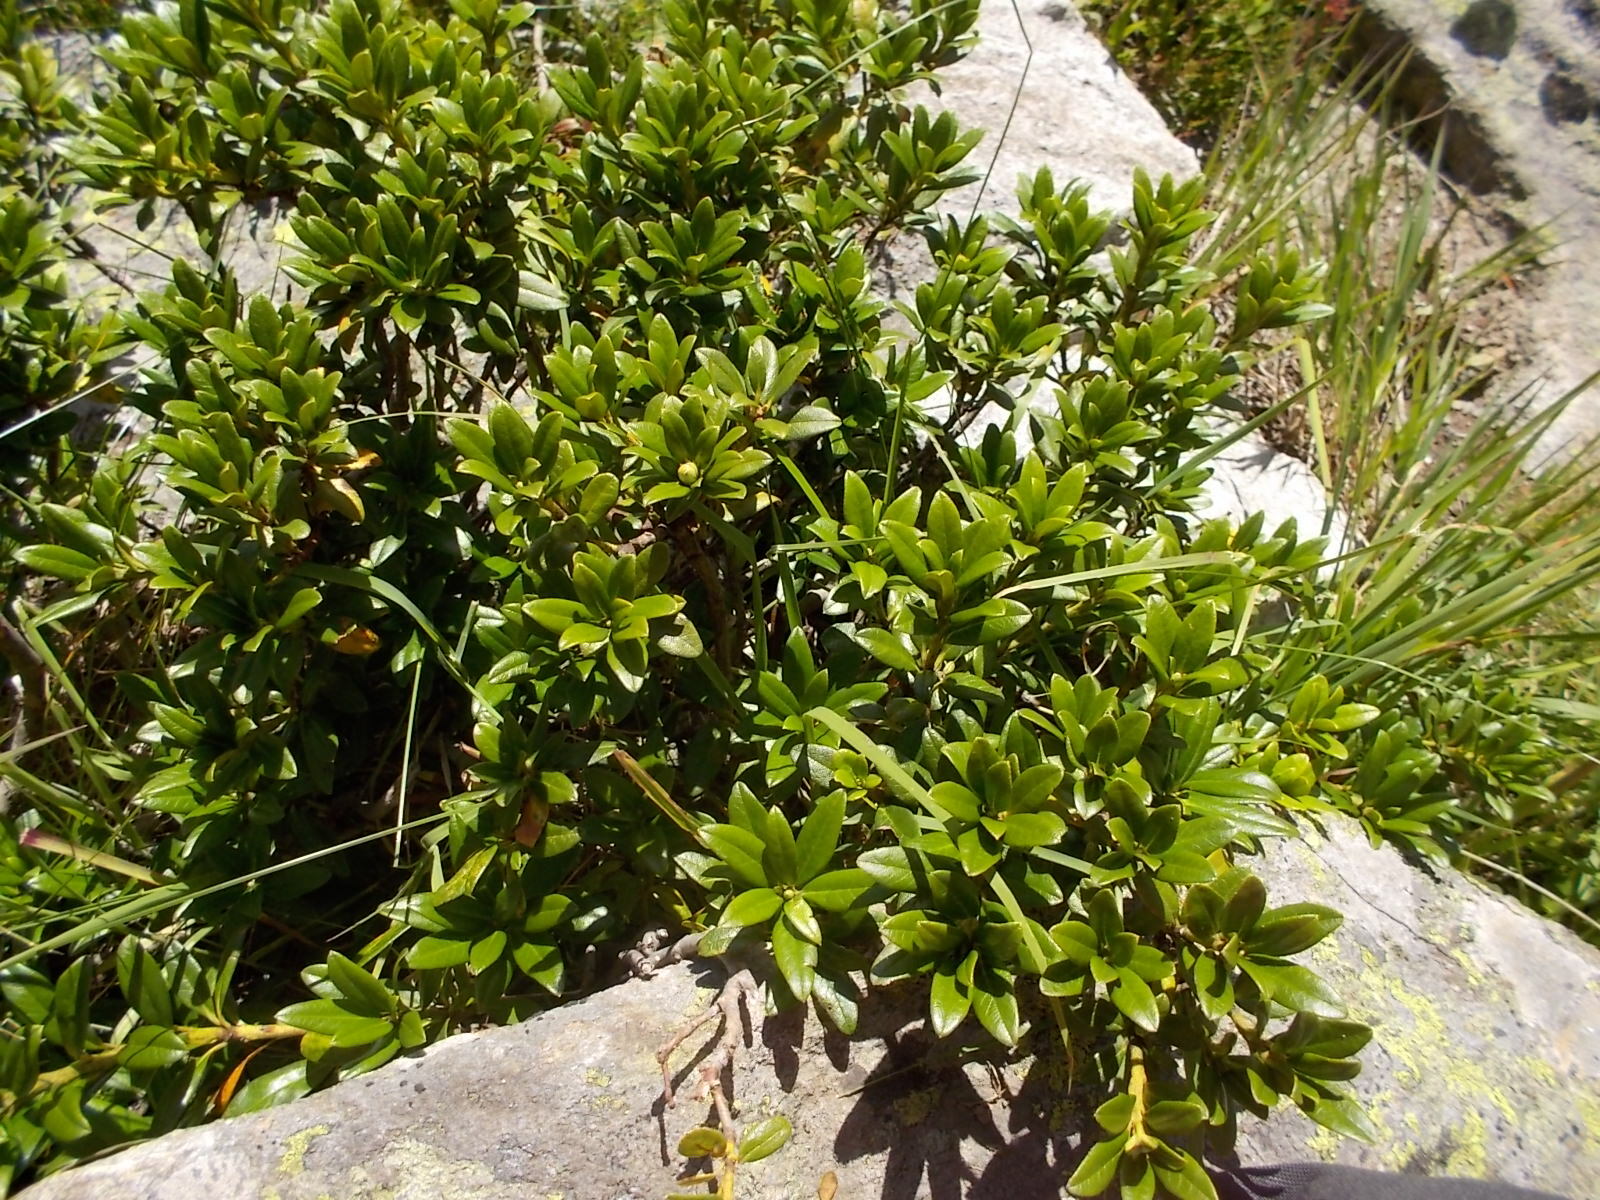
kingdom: Plantae
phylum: Tracheophyta
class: Magnoliopsida
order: Ericales
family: Ericaceae
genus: Rhododendron
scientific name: Rhododendron ferrugineum
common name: Alpenrose
